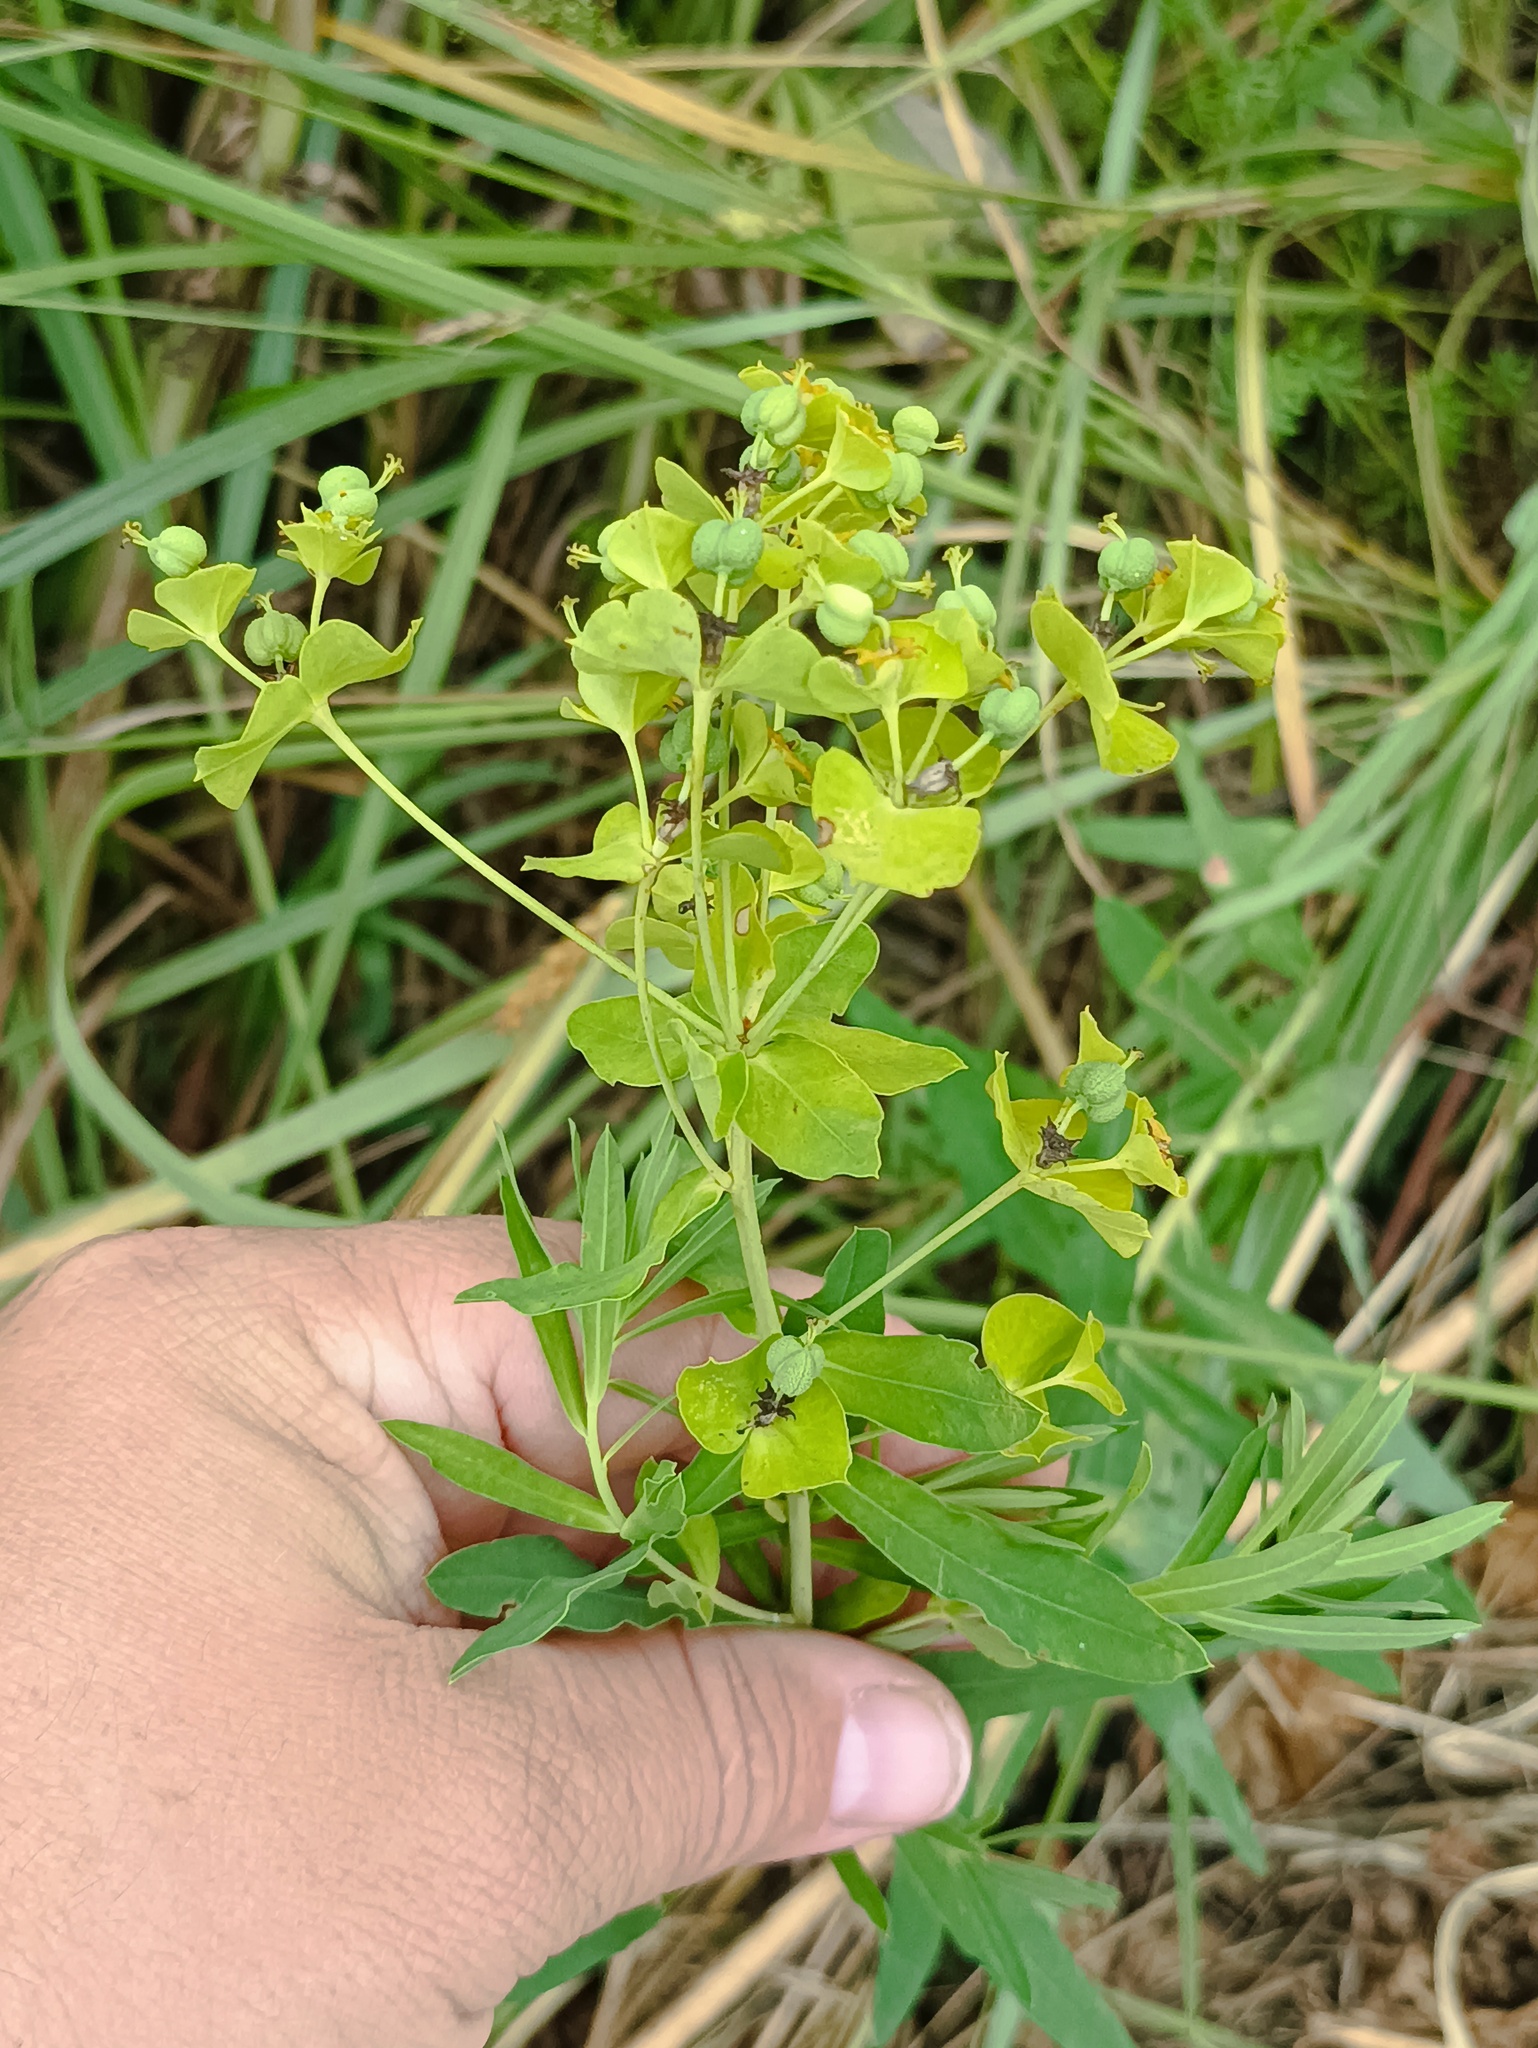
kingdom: Plantae
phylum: Tracheophyta
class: Magnoliopsida
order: Malpighiales
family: Euphorbiaceae
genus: Euphorbia
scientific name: Euphorbia virgata
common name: Leafy spurge
